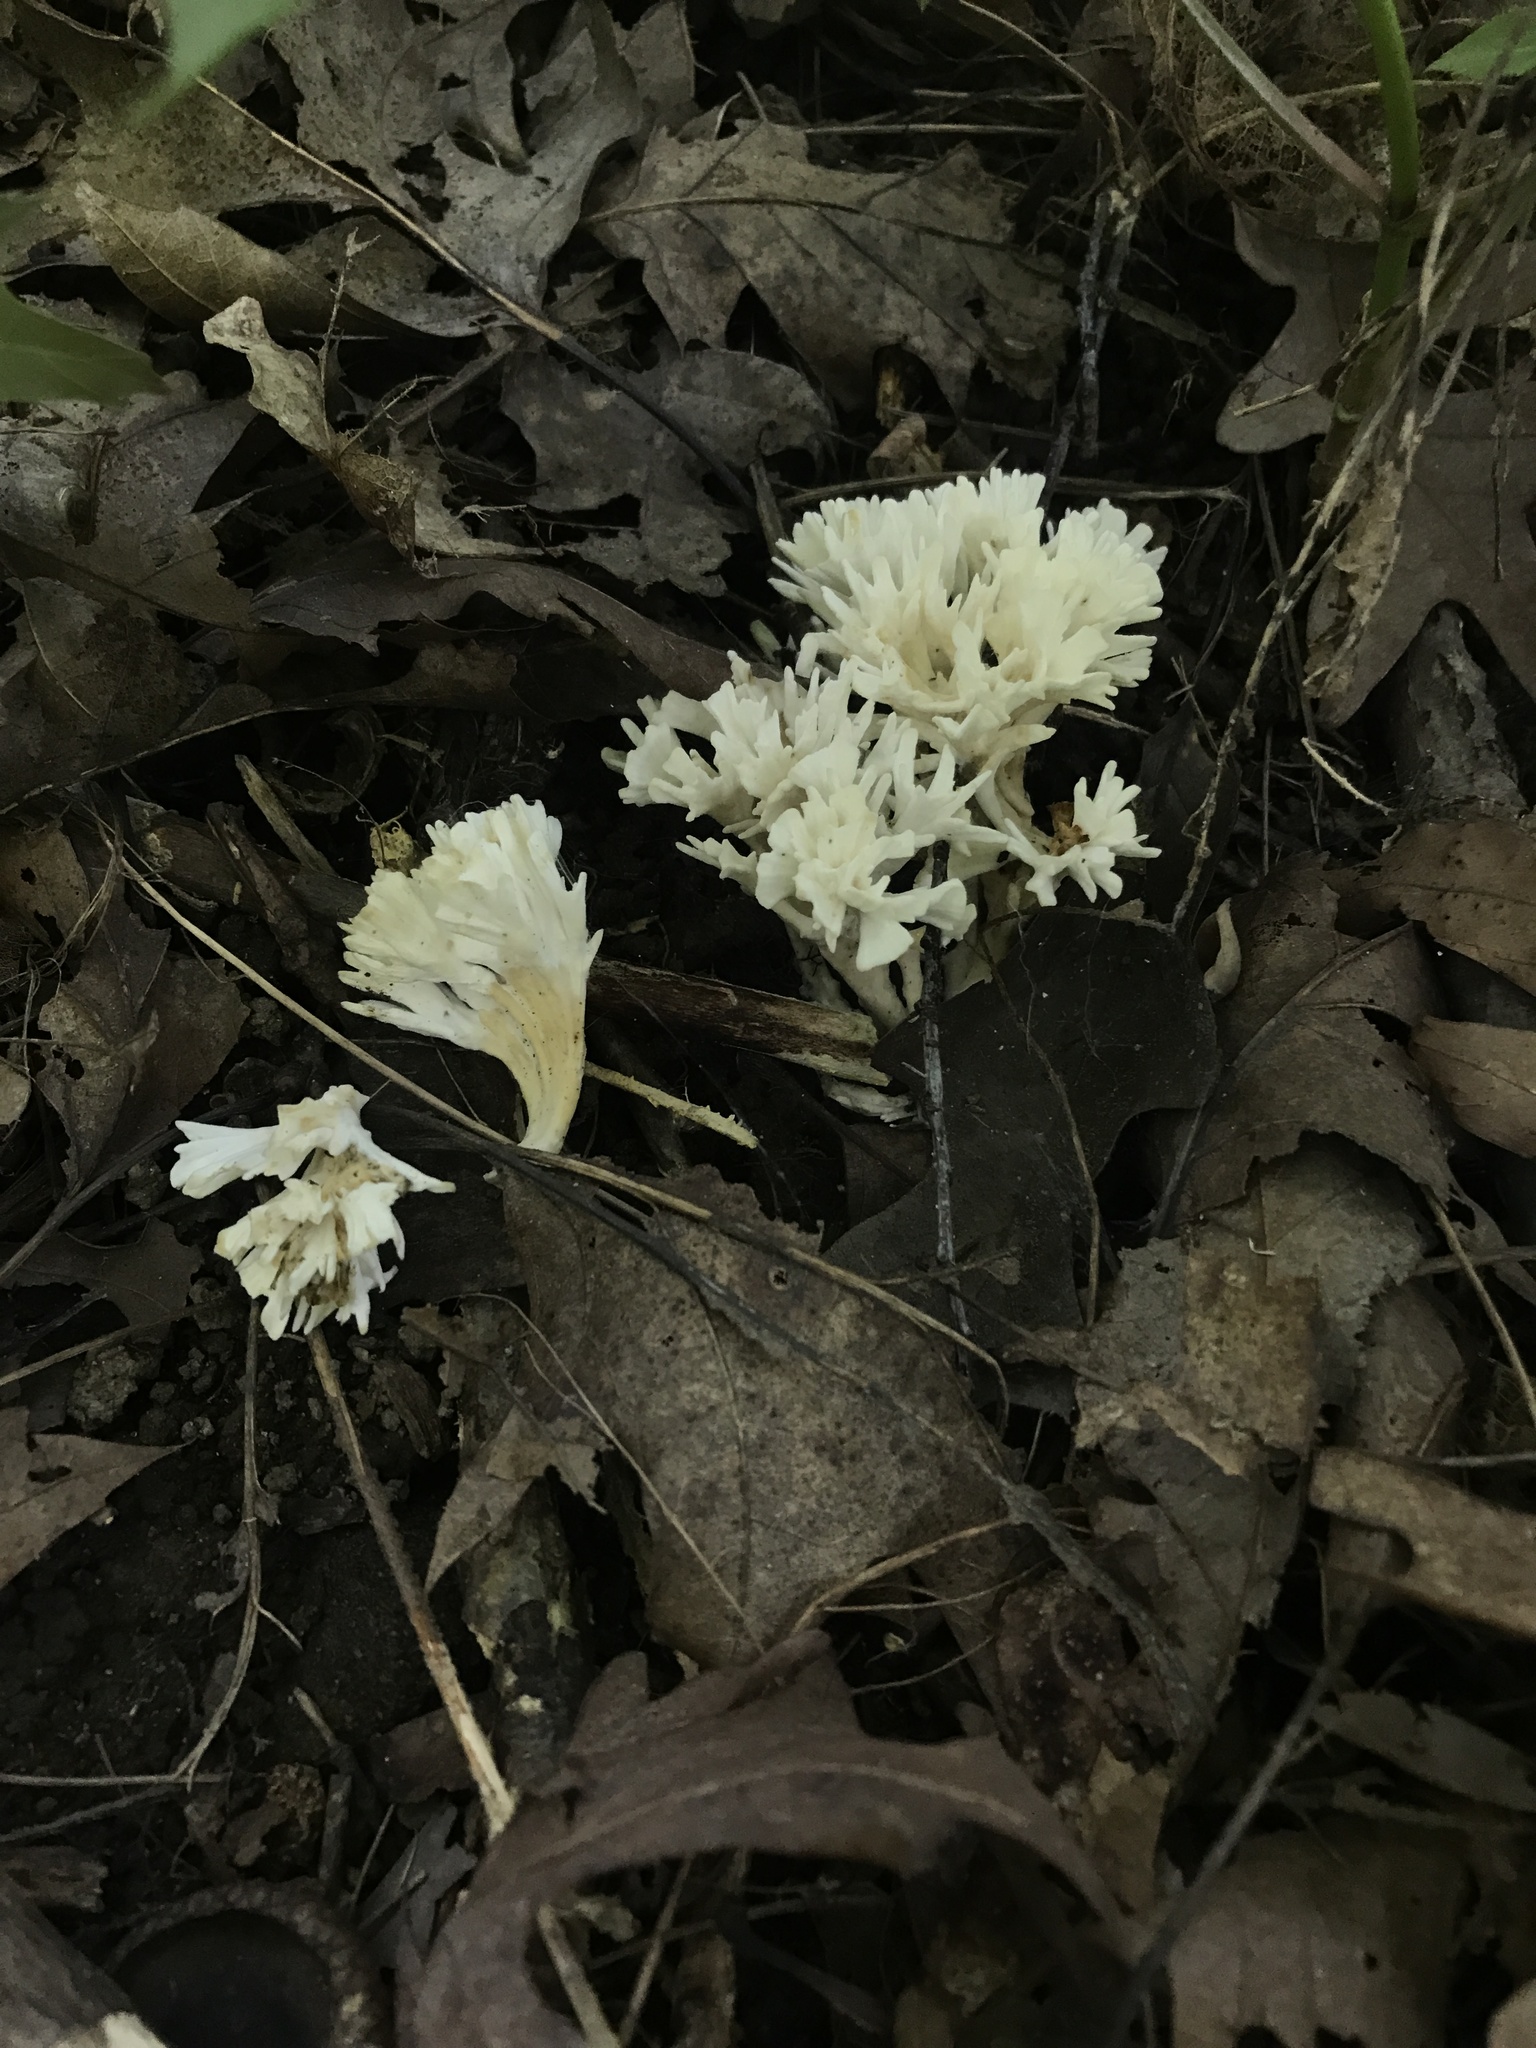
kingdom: Fungi
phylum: Basidiomycota
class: Agaricomycetes
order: Sebacinales
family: Sebacinaceae
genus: Sebacina
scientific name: Sebacina schweinitzii
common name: Jellied false coral fungus
